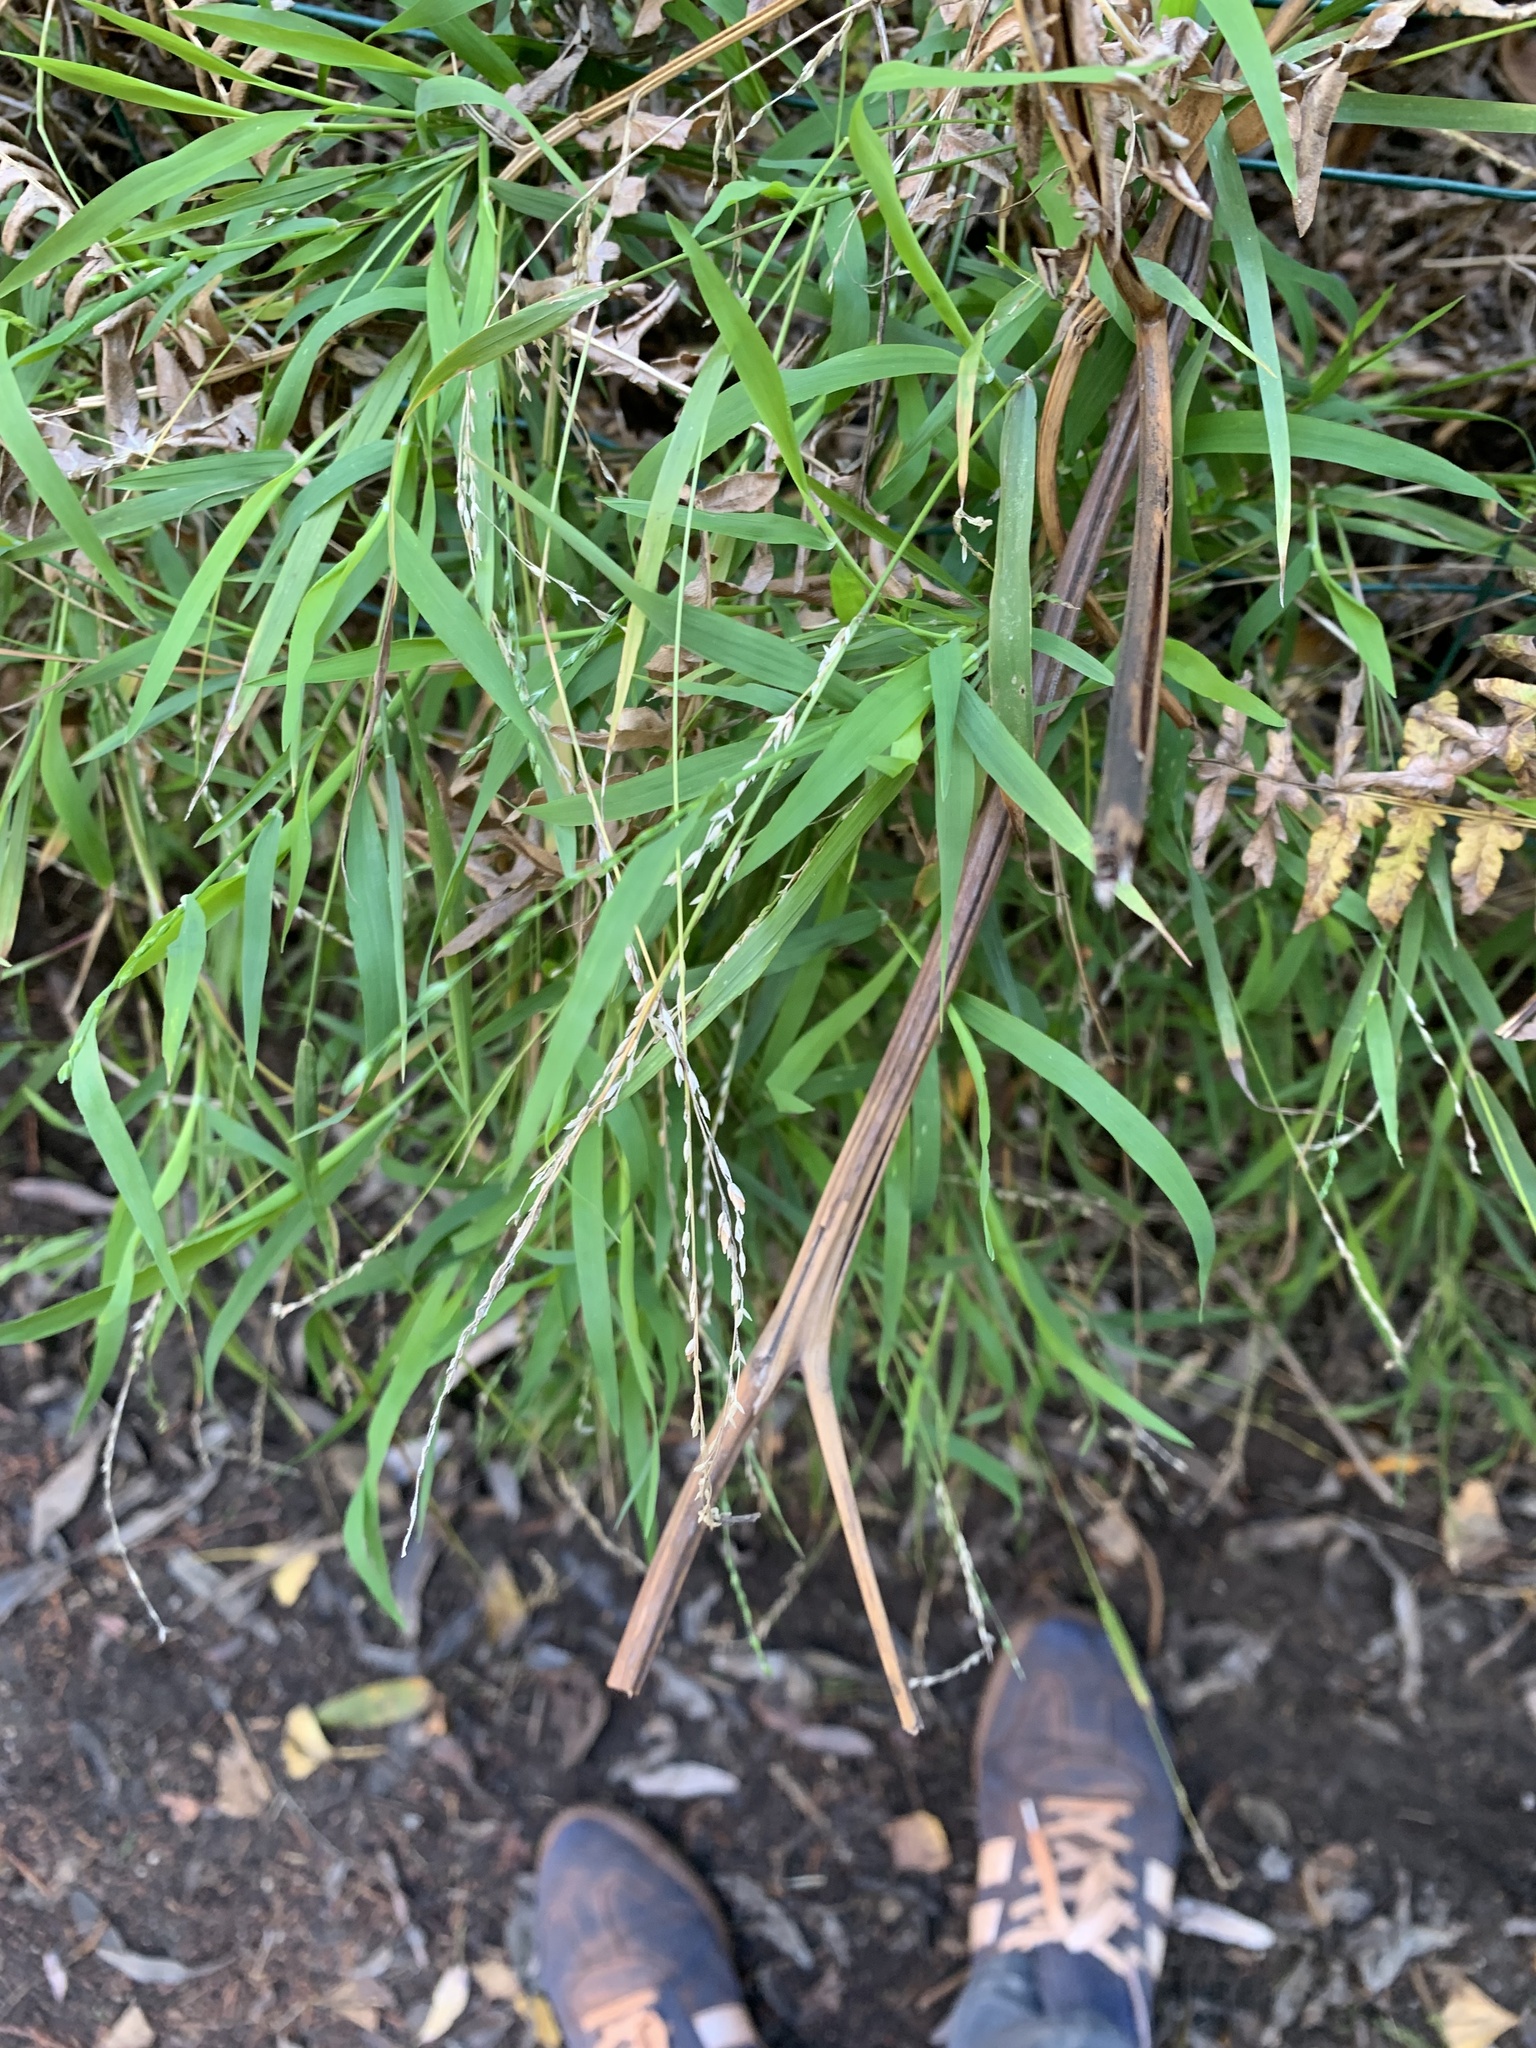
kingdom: Plantae
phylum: Tracheophyta
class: Liliopsida
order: Poales
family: Poaceae
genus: Ehrharta
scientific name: Ehrharta erecta
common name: Panic veldtgrass
